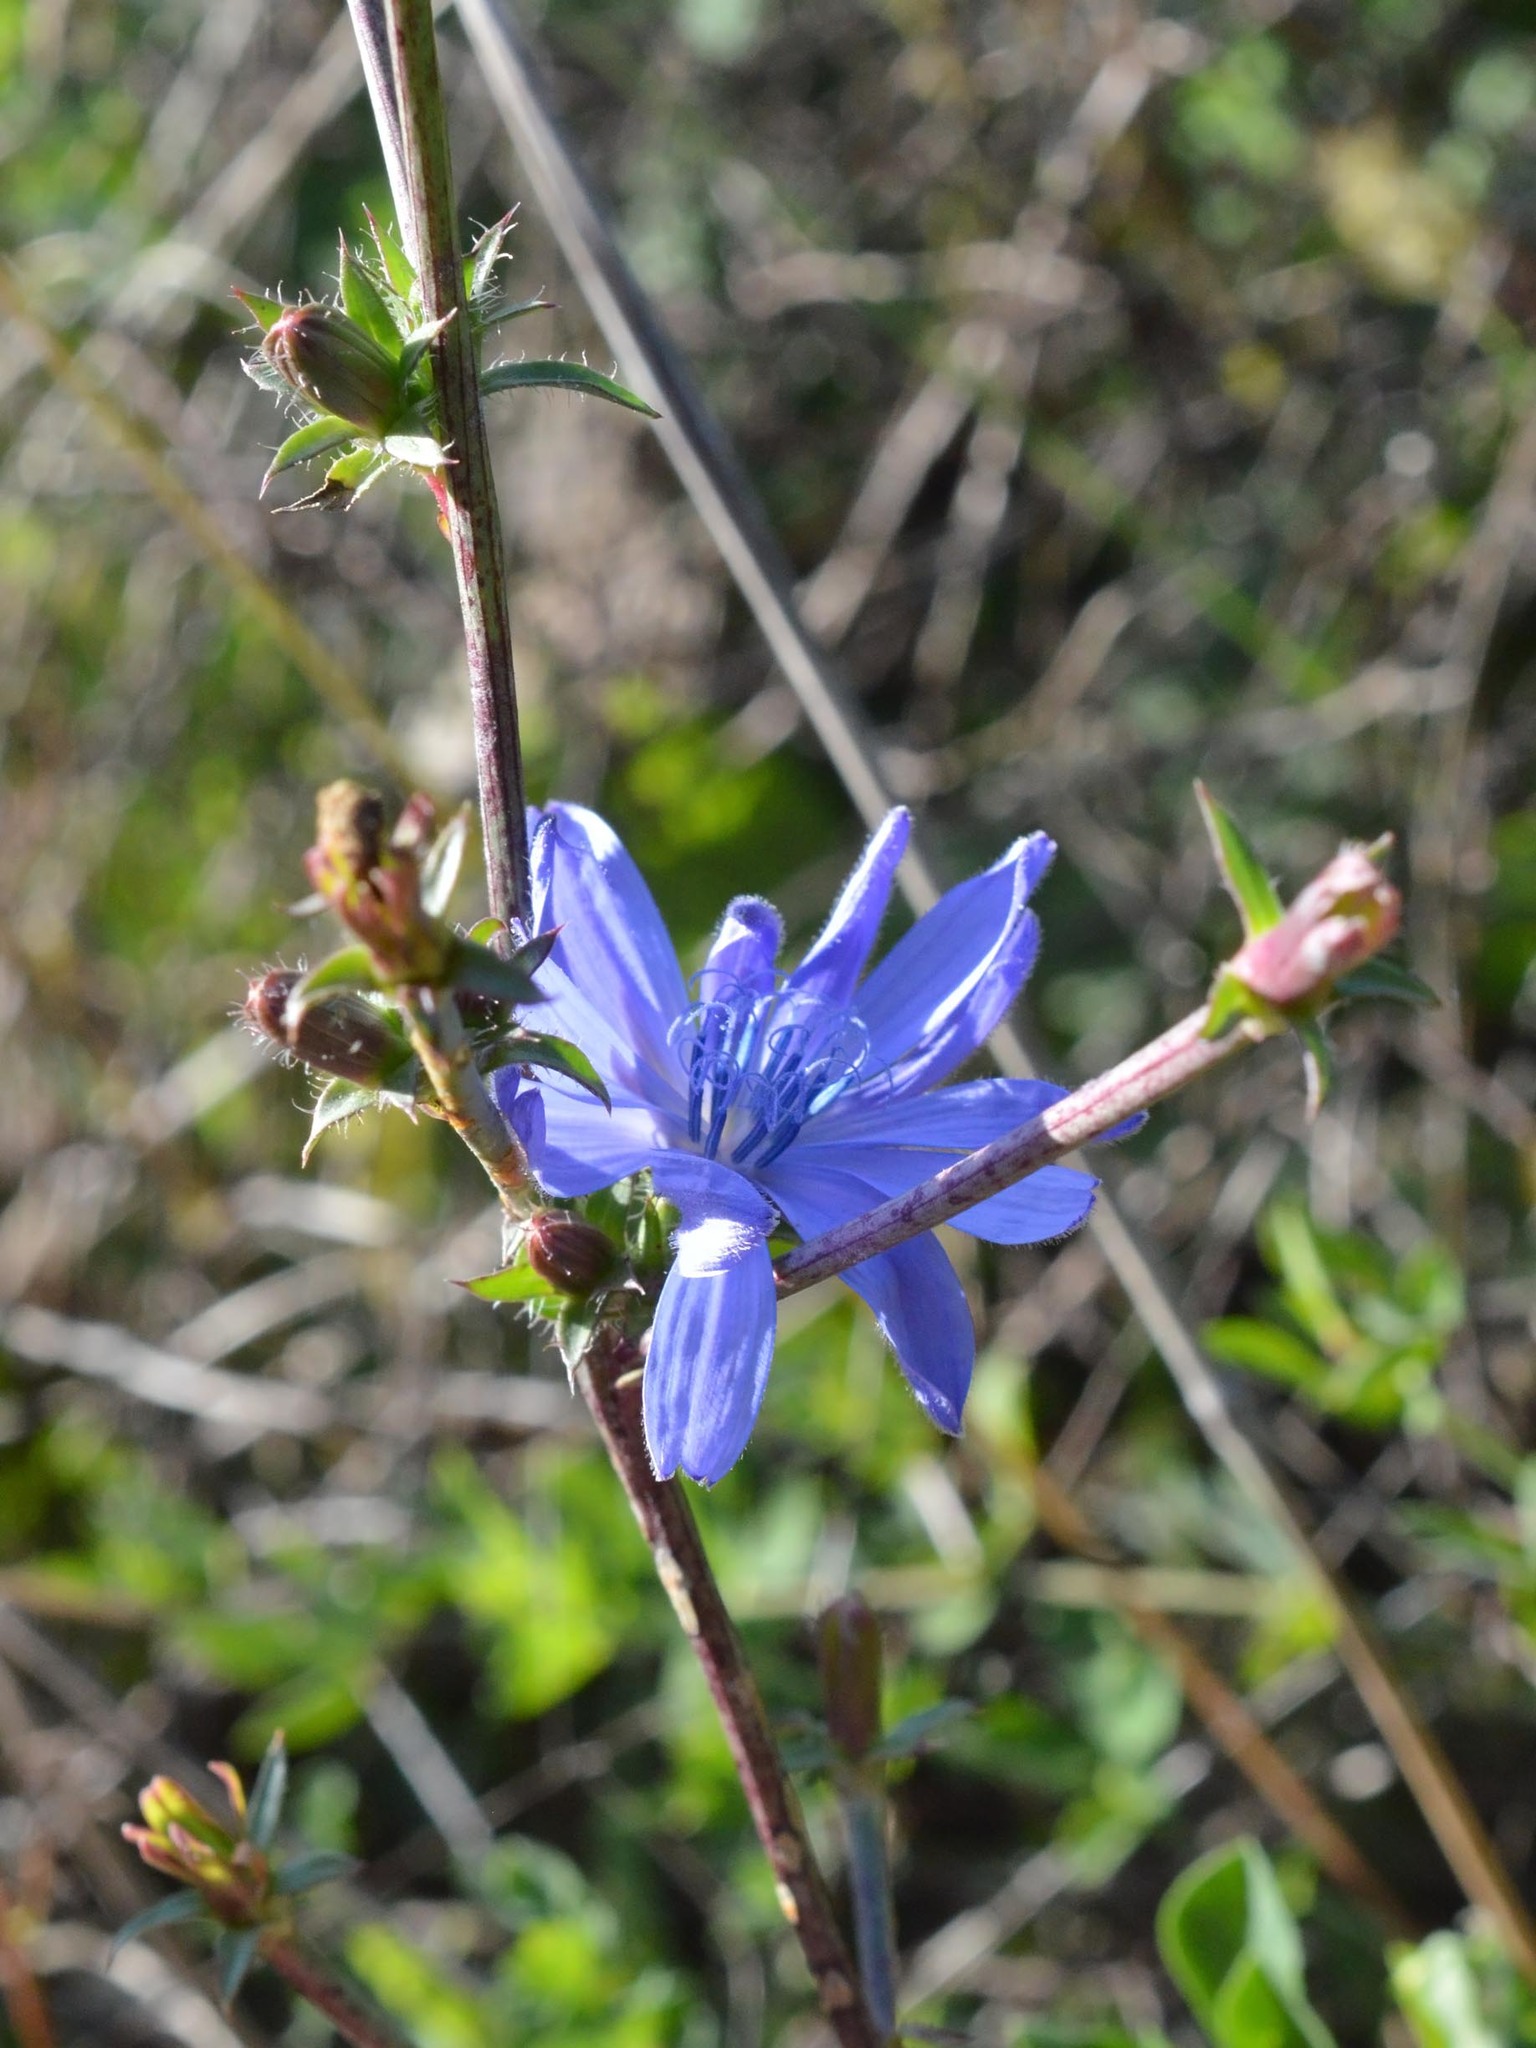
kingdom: Plantae
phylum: Tracheophyta
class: Magnoliopsida
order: Asterales
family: Asteraceae
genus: Cichorium
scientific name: Cichorium intybus
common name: Chicory
